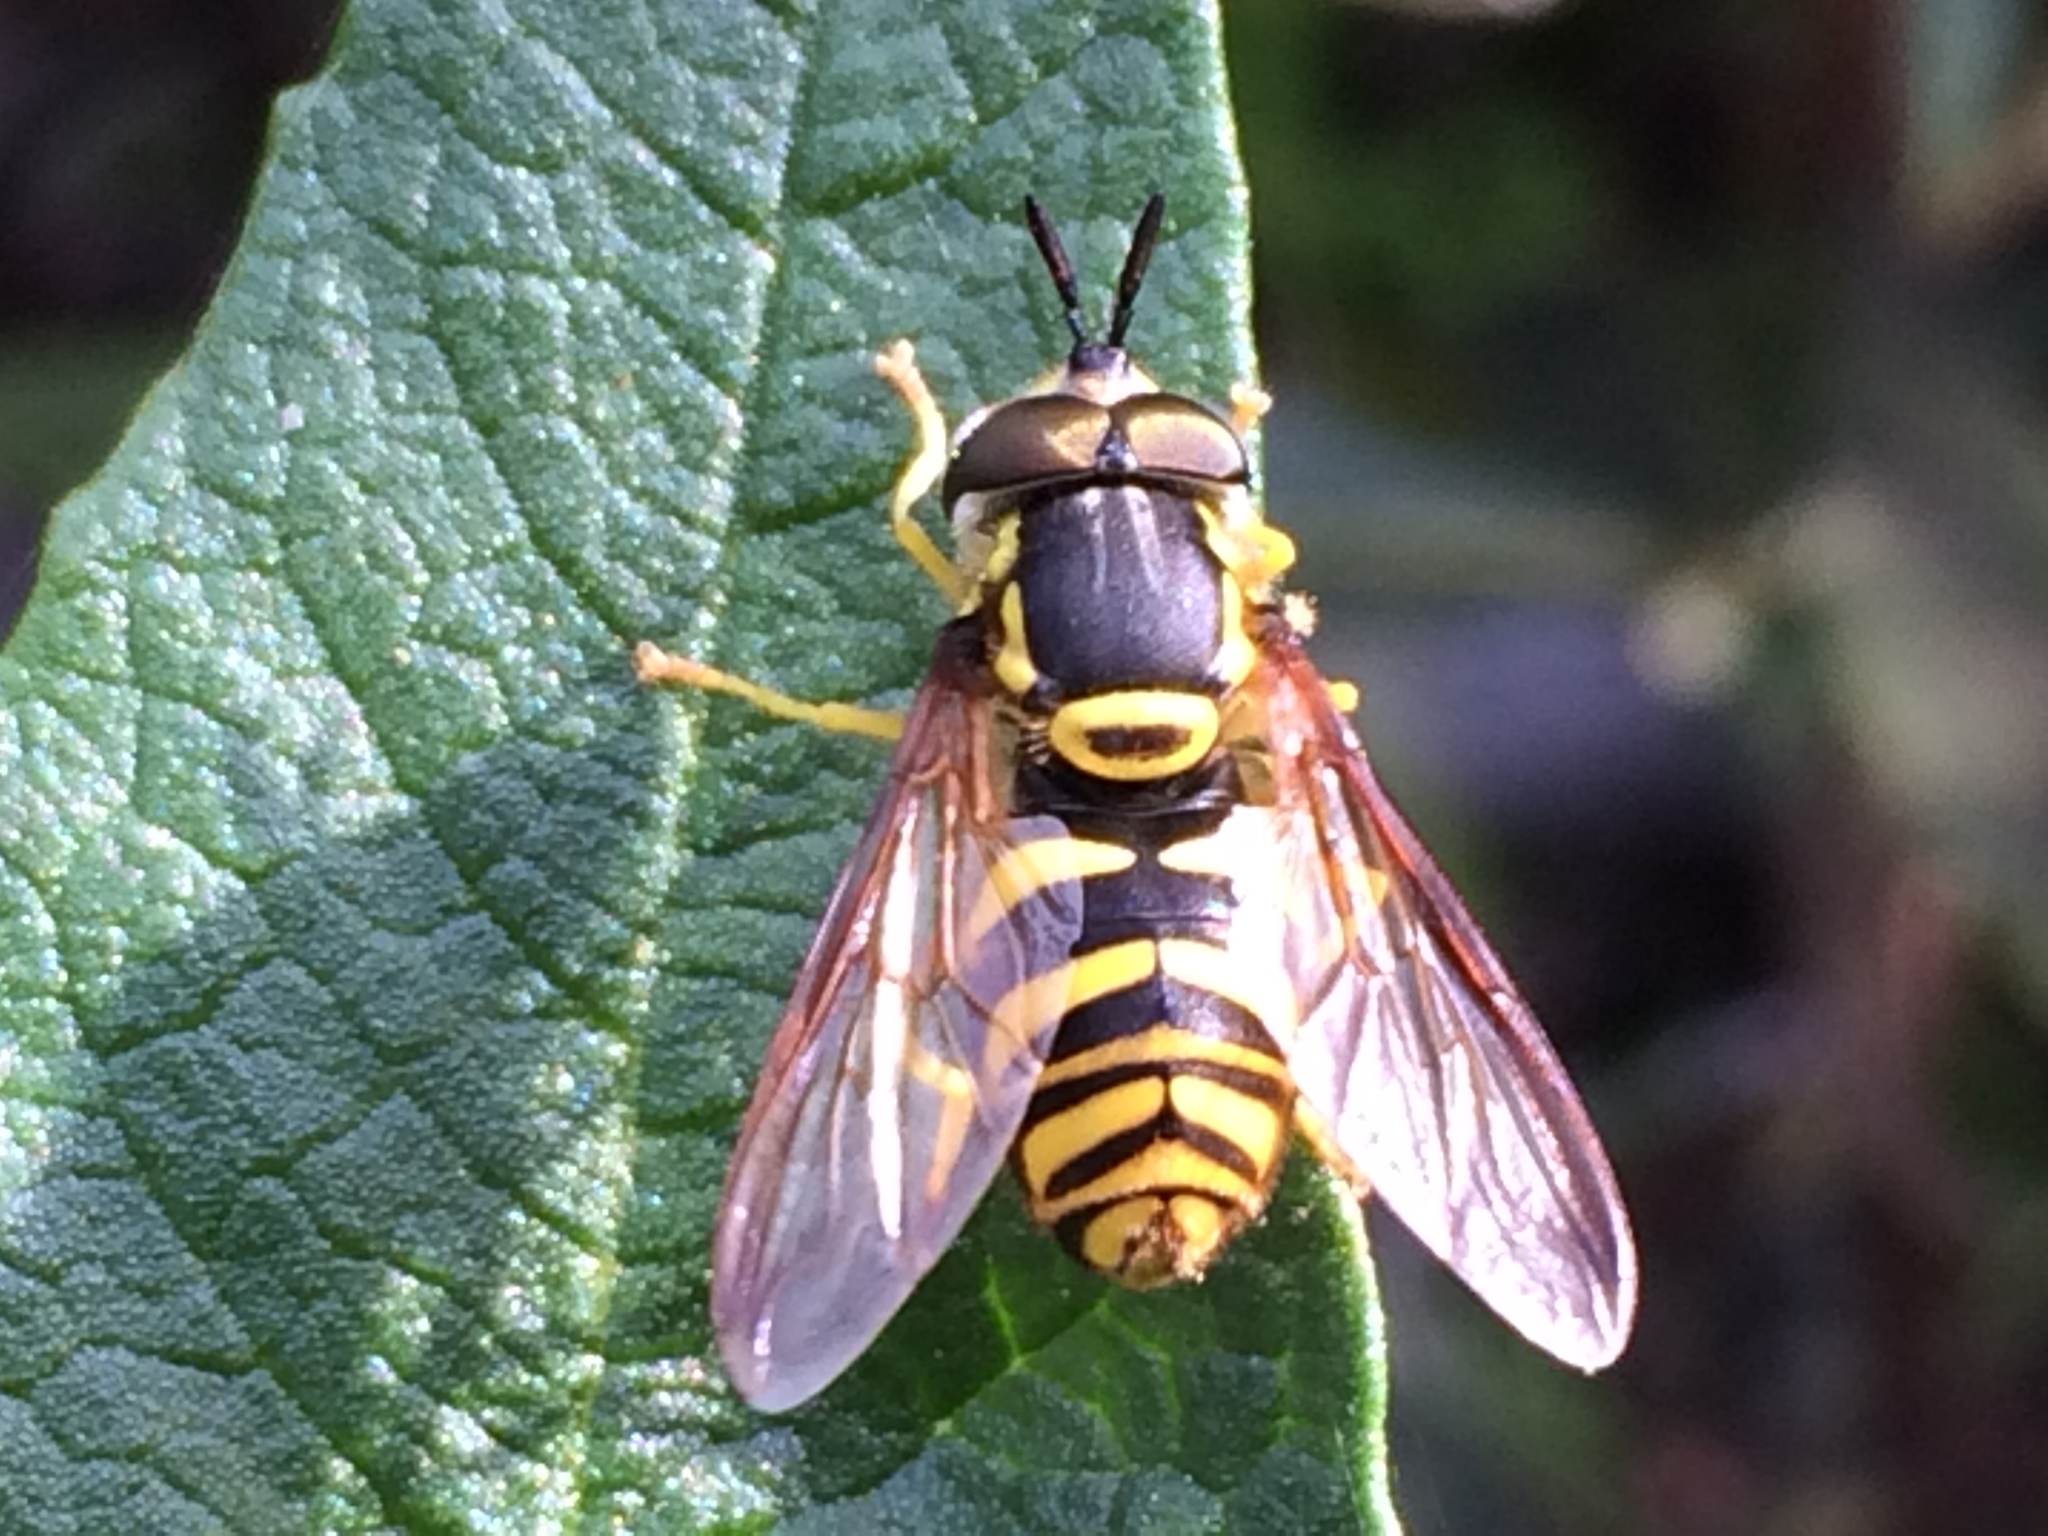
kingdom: Animalia
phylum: Arthropoda
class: Insecta
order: Diptera
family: Syrphidae
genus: Chrysotoxum
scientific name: Chrysotoxum
